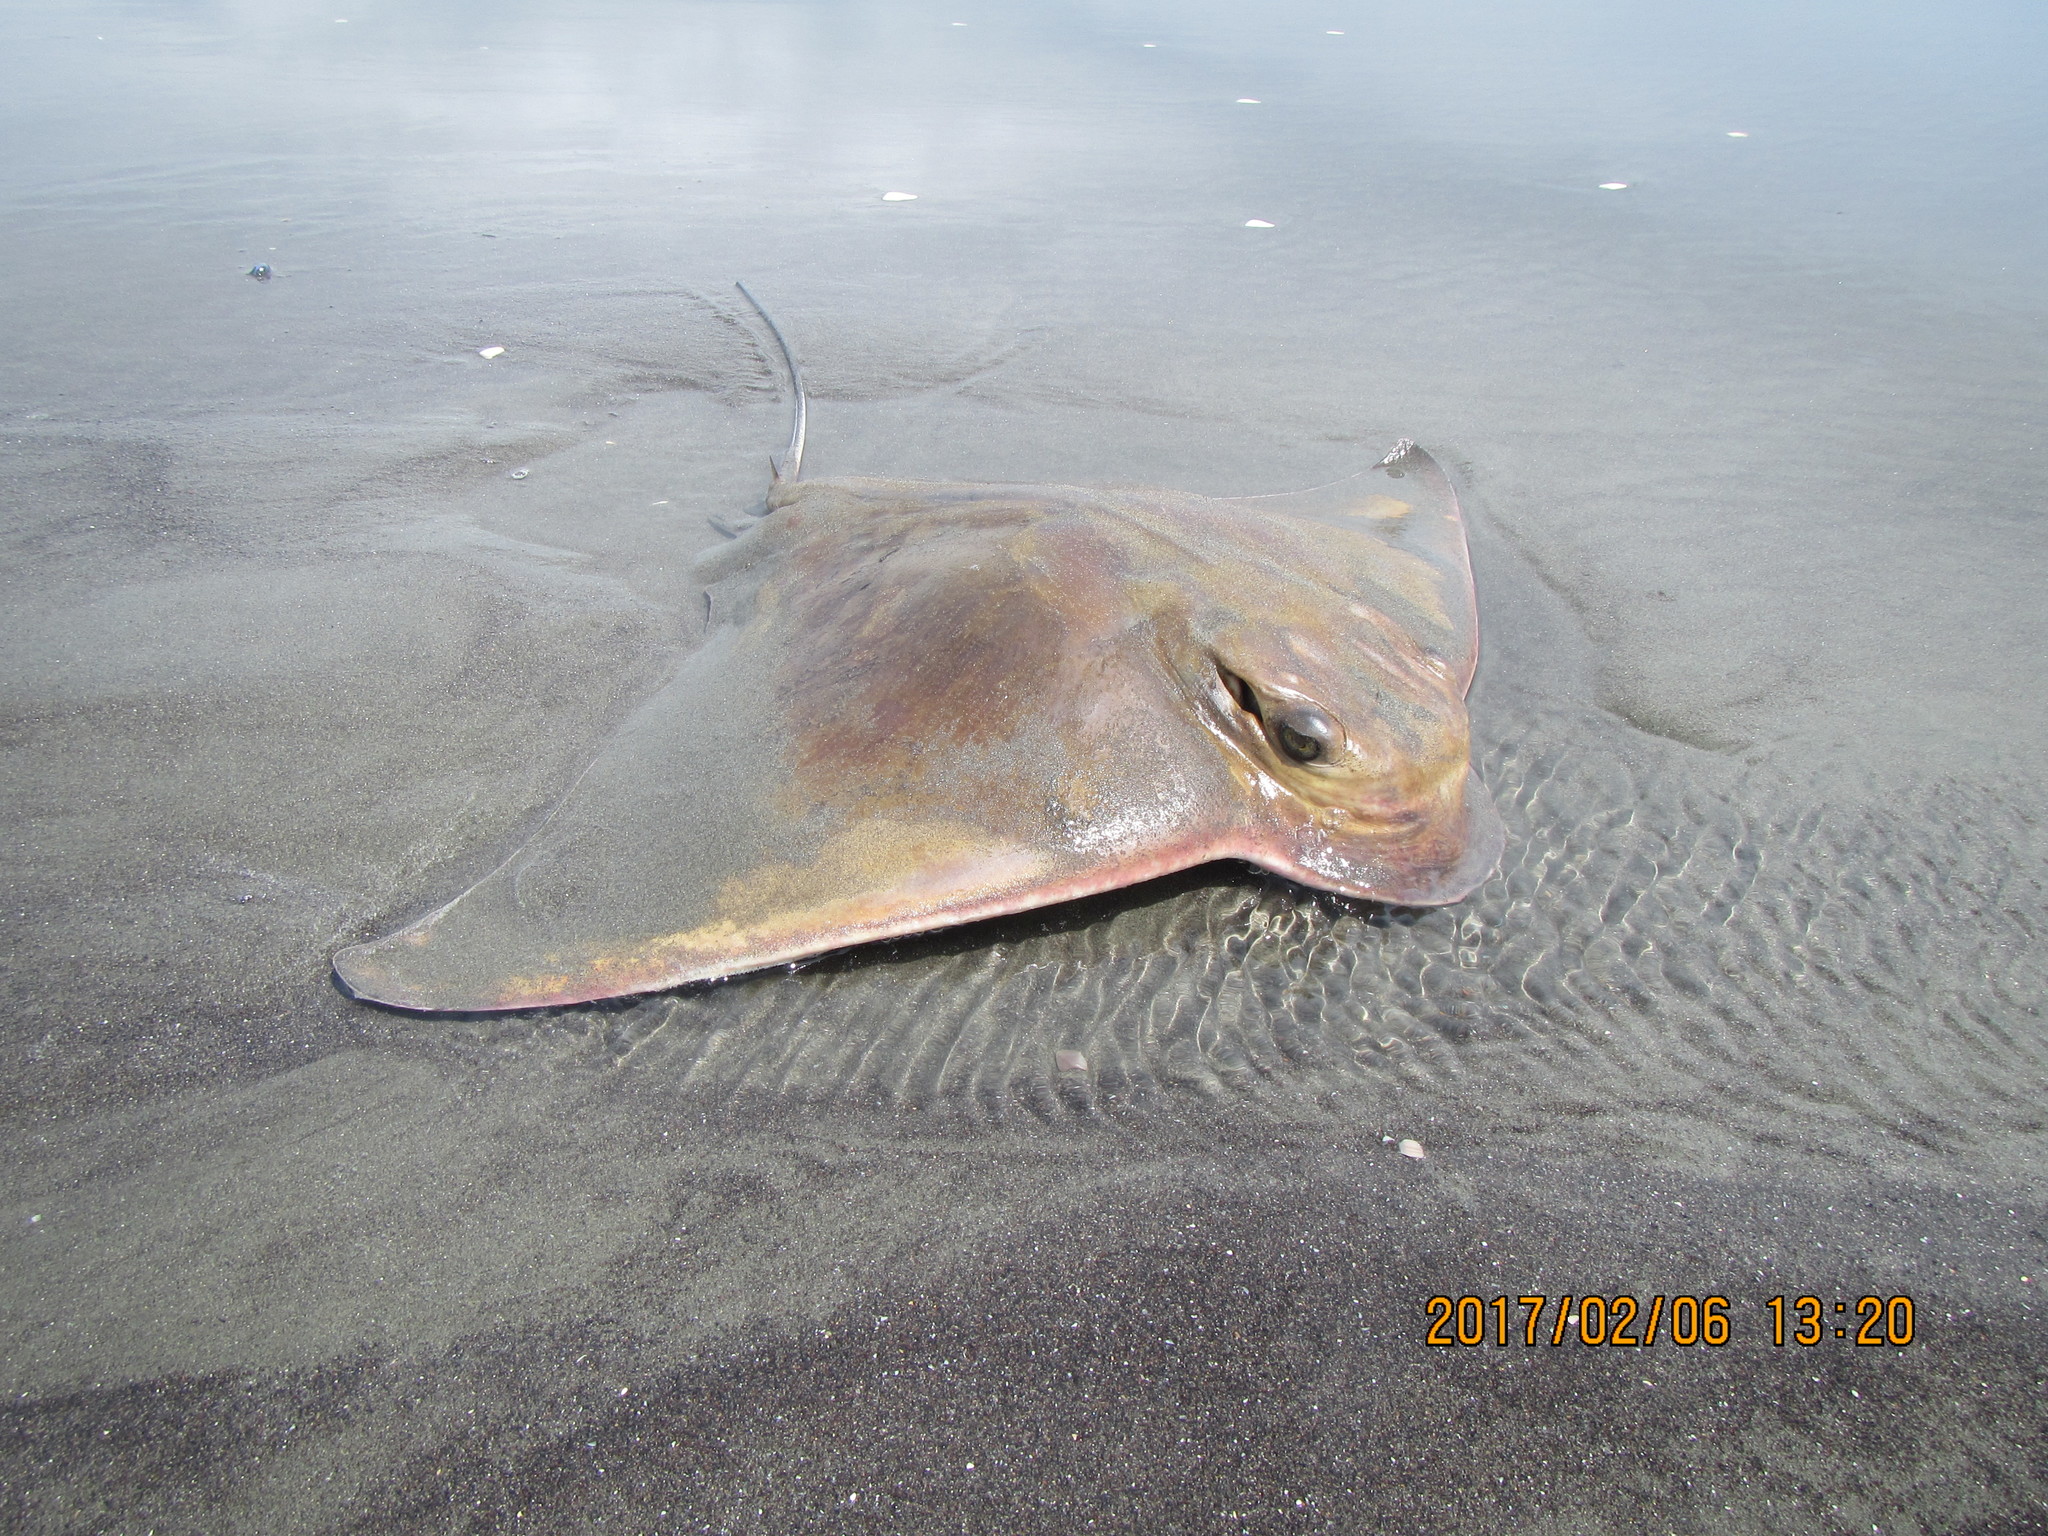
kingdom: Animalia
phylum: Chordata
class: Elasmobranchii
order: Myliobatiformes
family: Myliobatidae
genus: Myliobatis
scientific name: Myliobatis tenuicaudatus
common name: Eagle ray
